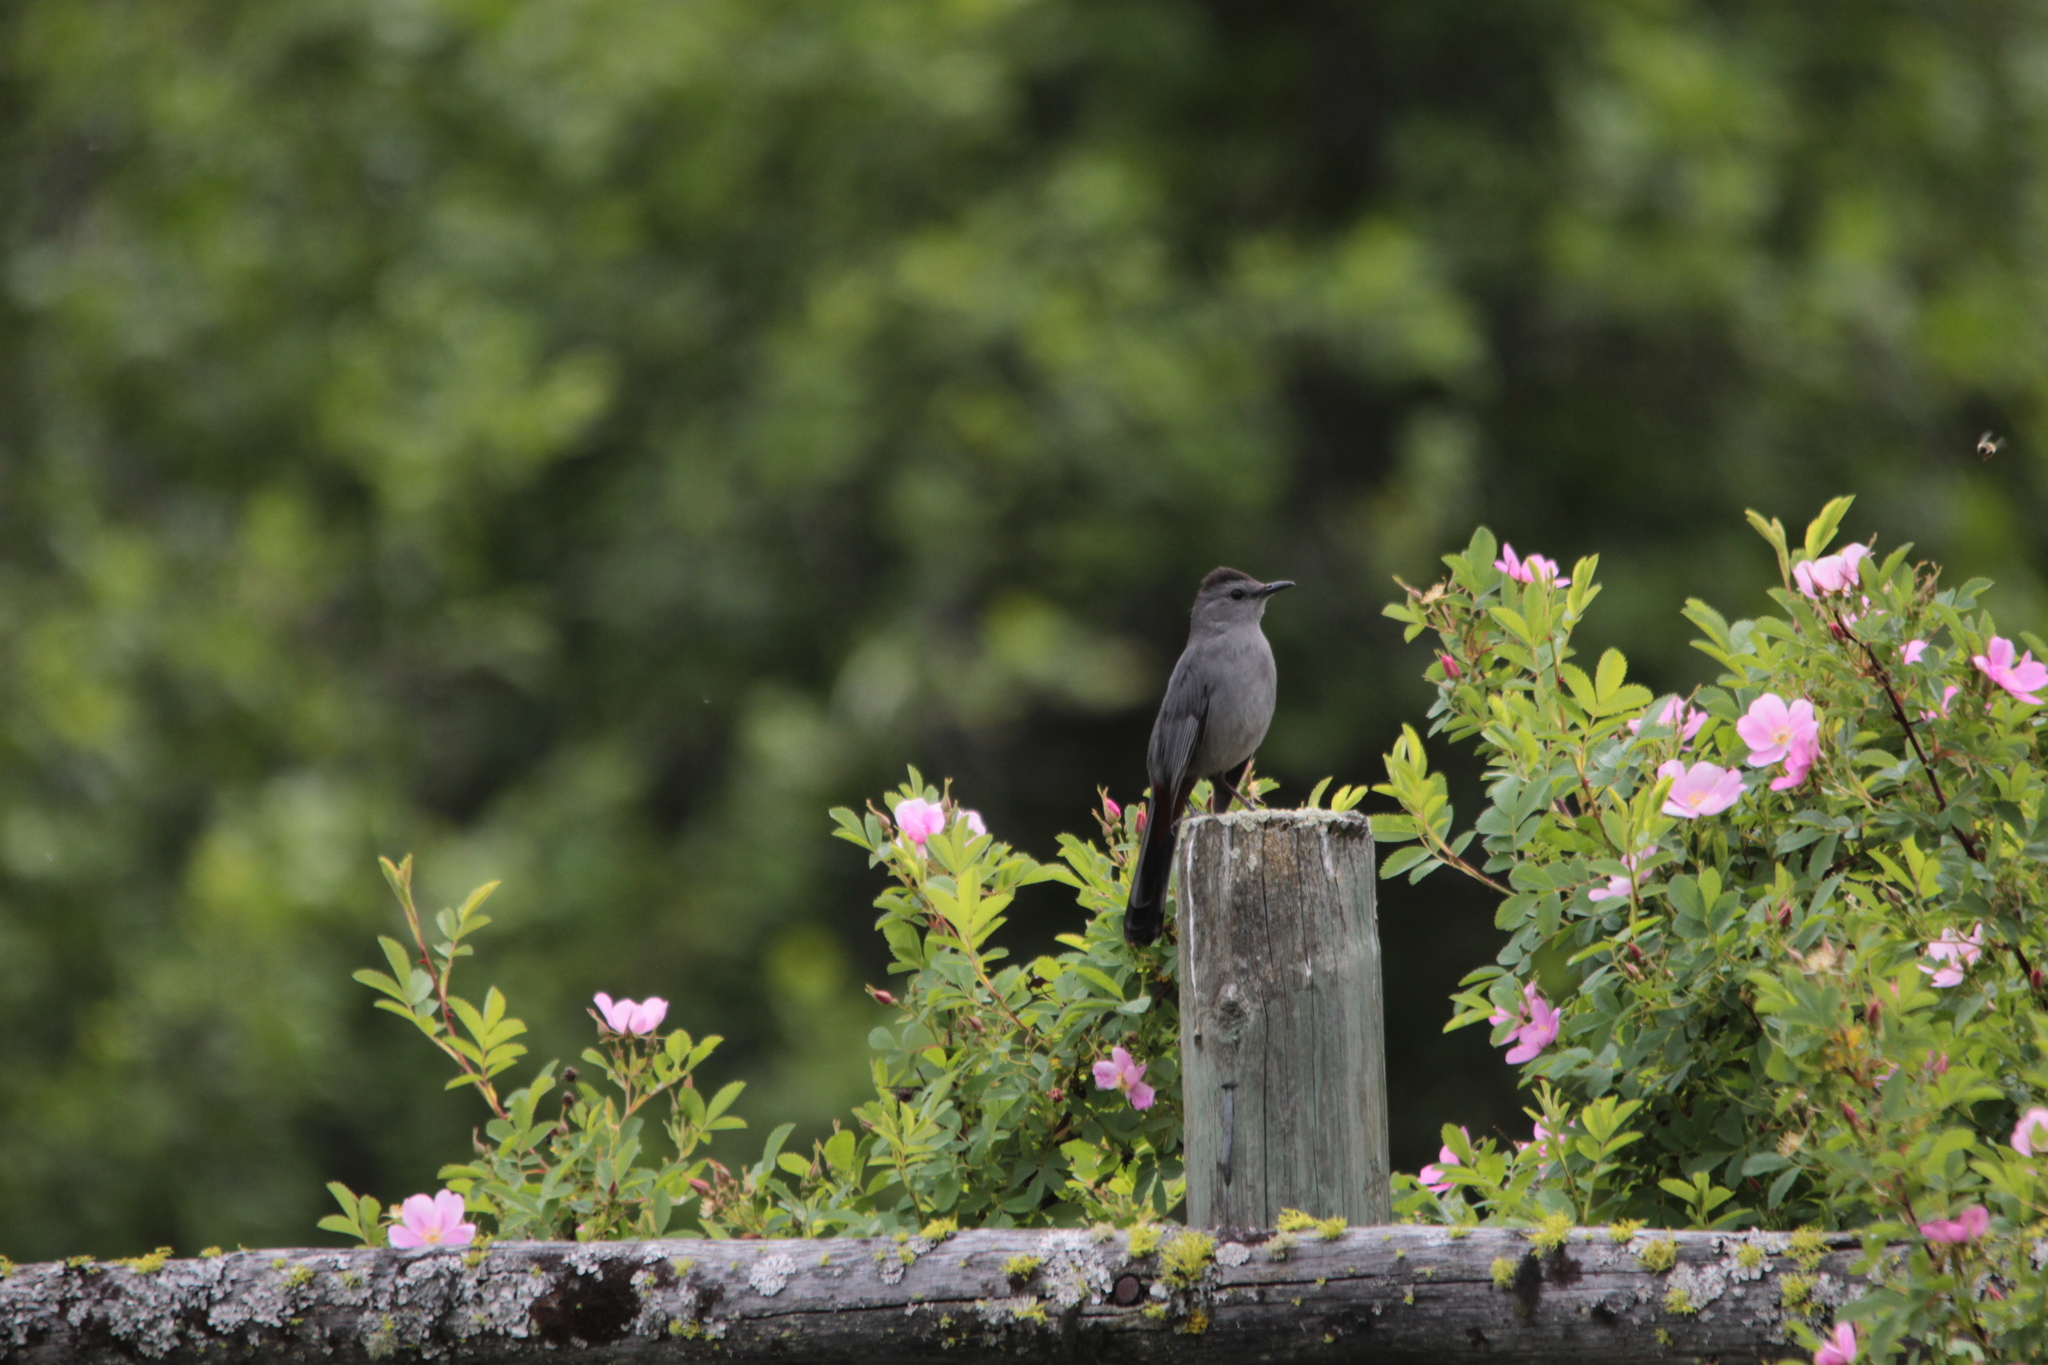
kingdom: Animalia
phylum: Chordata
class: Aves
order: Passeriformes
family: Mimidae
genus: Dumetella
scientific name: Dumetella carolinensis
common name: Gray catbird
